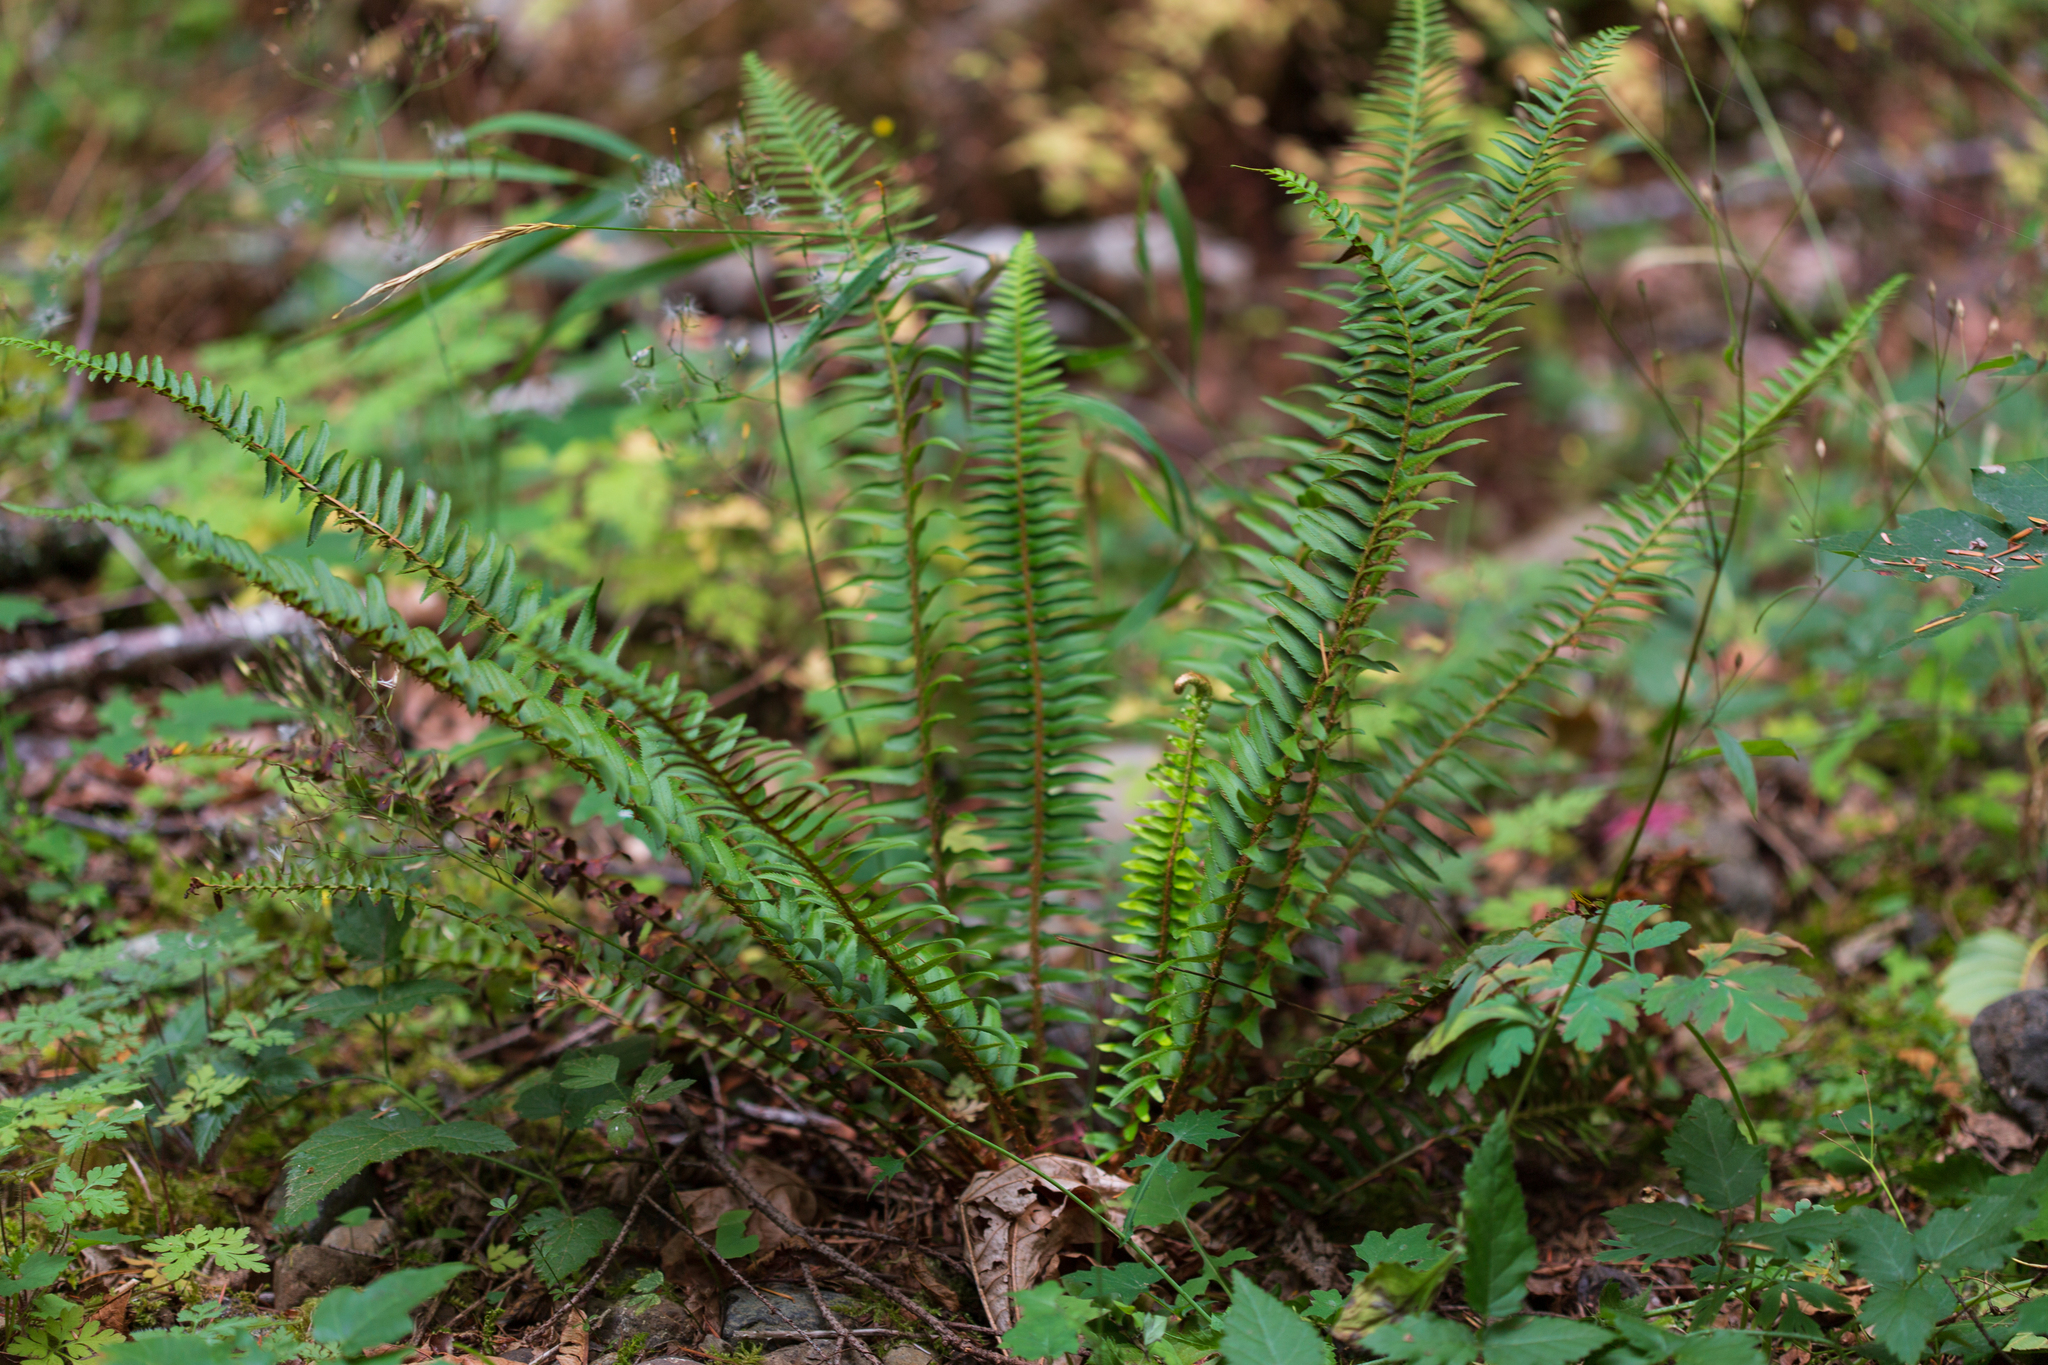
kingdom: Plantae
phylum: Tracheophyta
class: Polypodiopsida
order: Polypodiales
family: Dryopteridaceae
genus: Polystichum
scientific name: Polystichum munitum
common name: Western sword-fern
